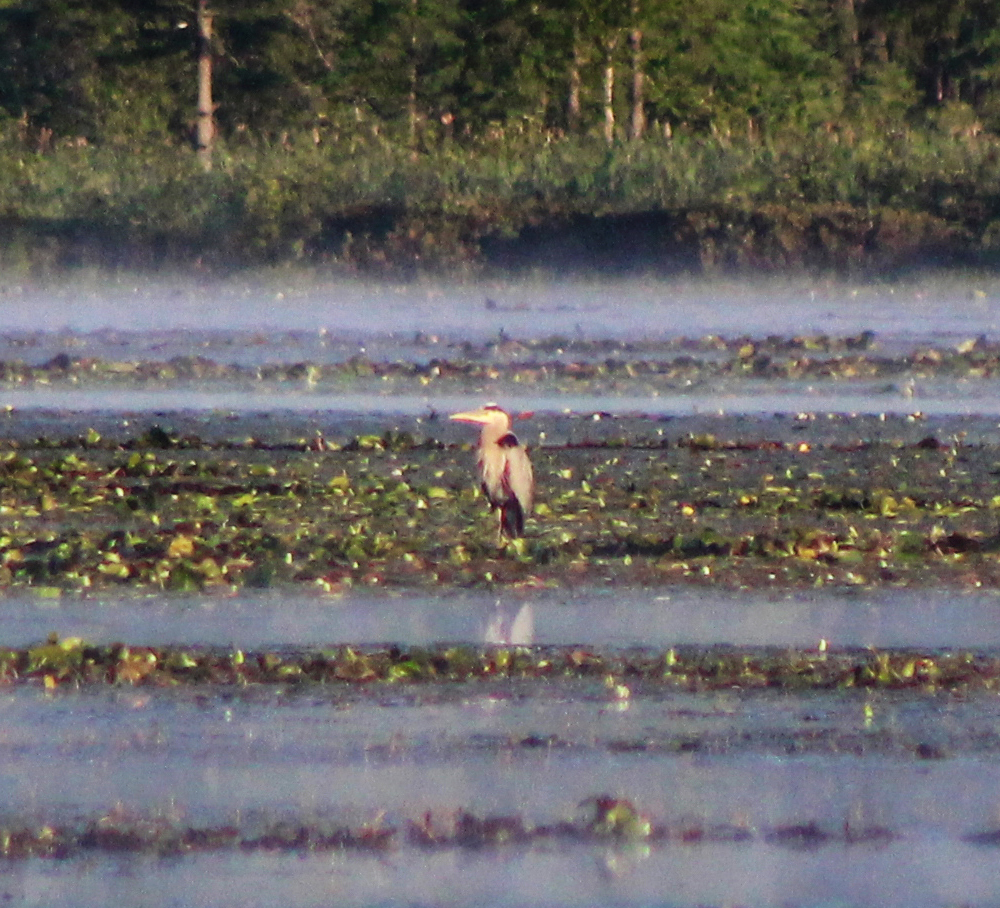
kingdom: Animalia
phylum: Chordata
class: Aves
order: Pelecaniformes
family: Ardeidae
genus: Ardea
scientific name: Ardea herodias
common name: Great blue heron
